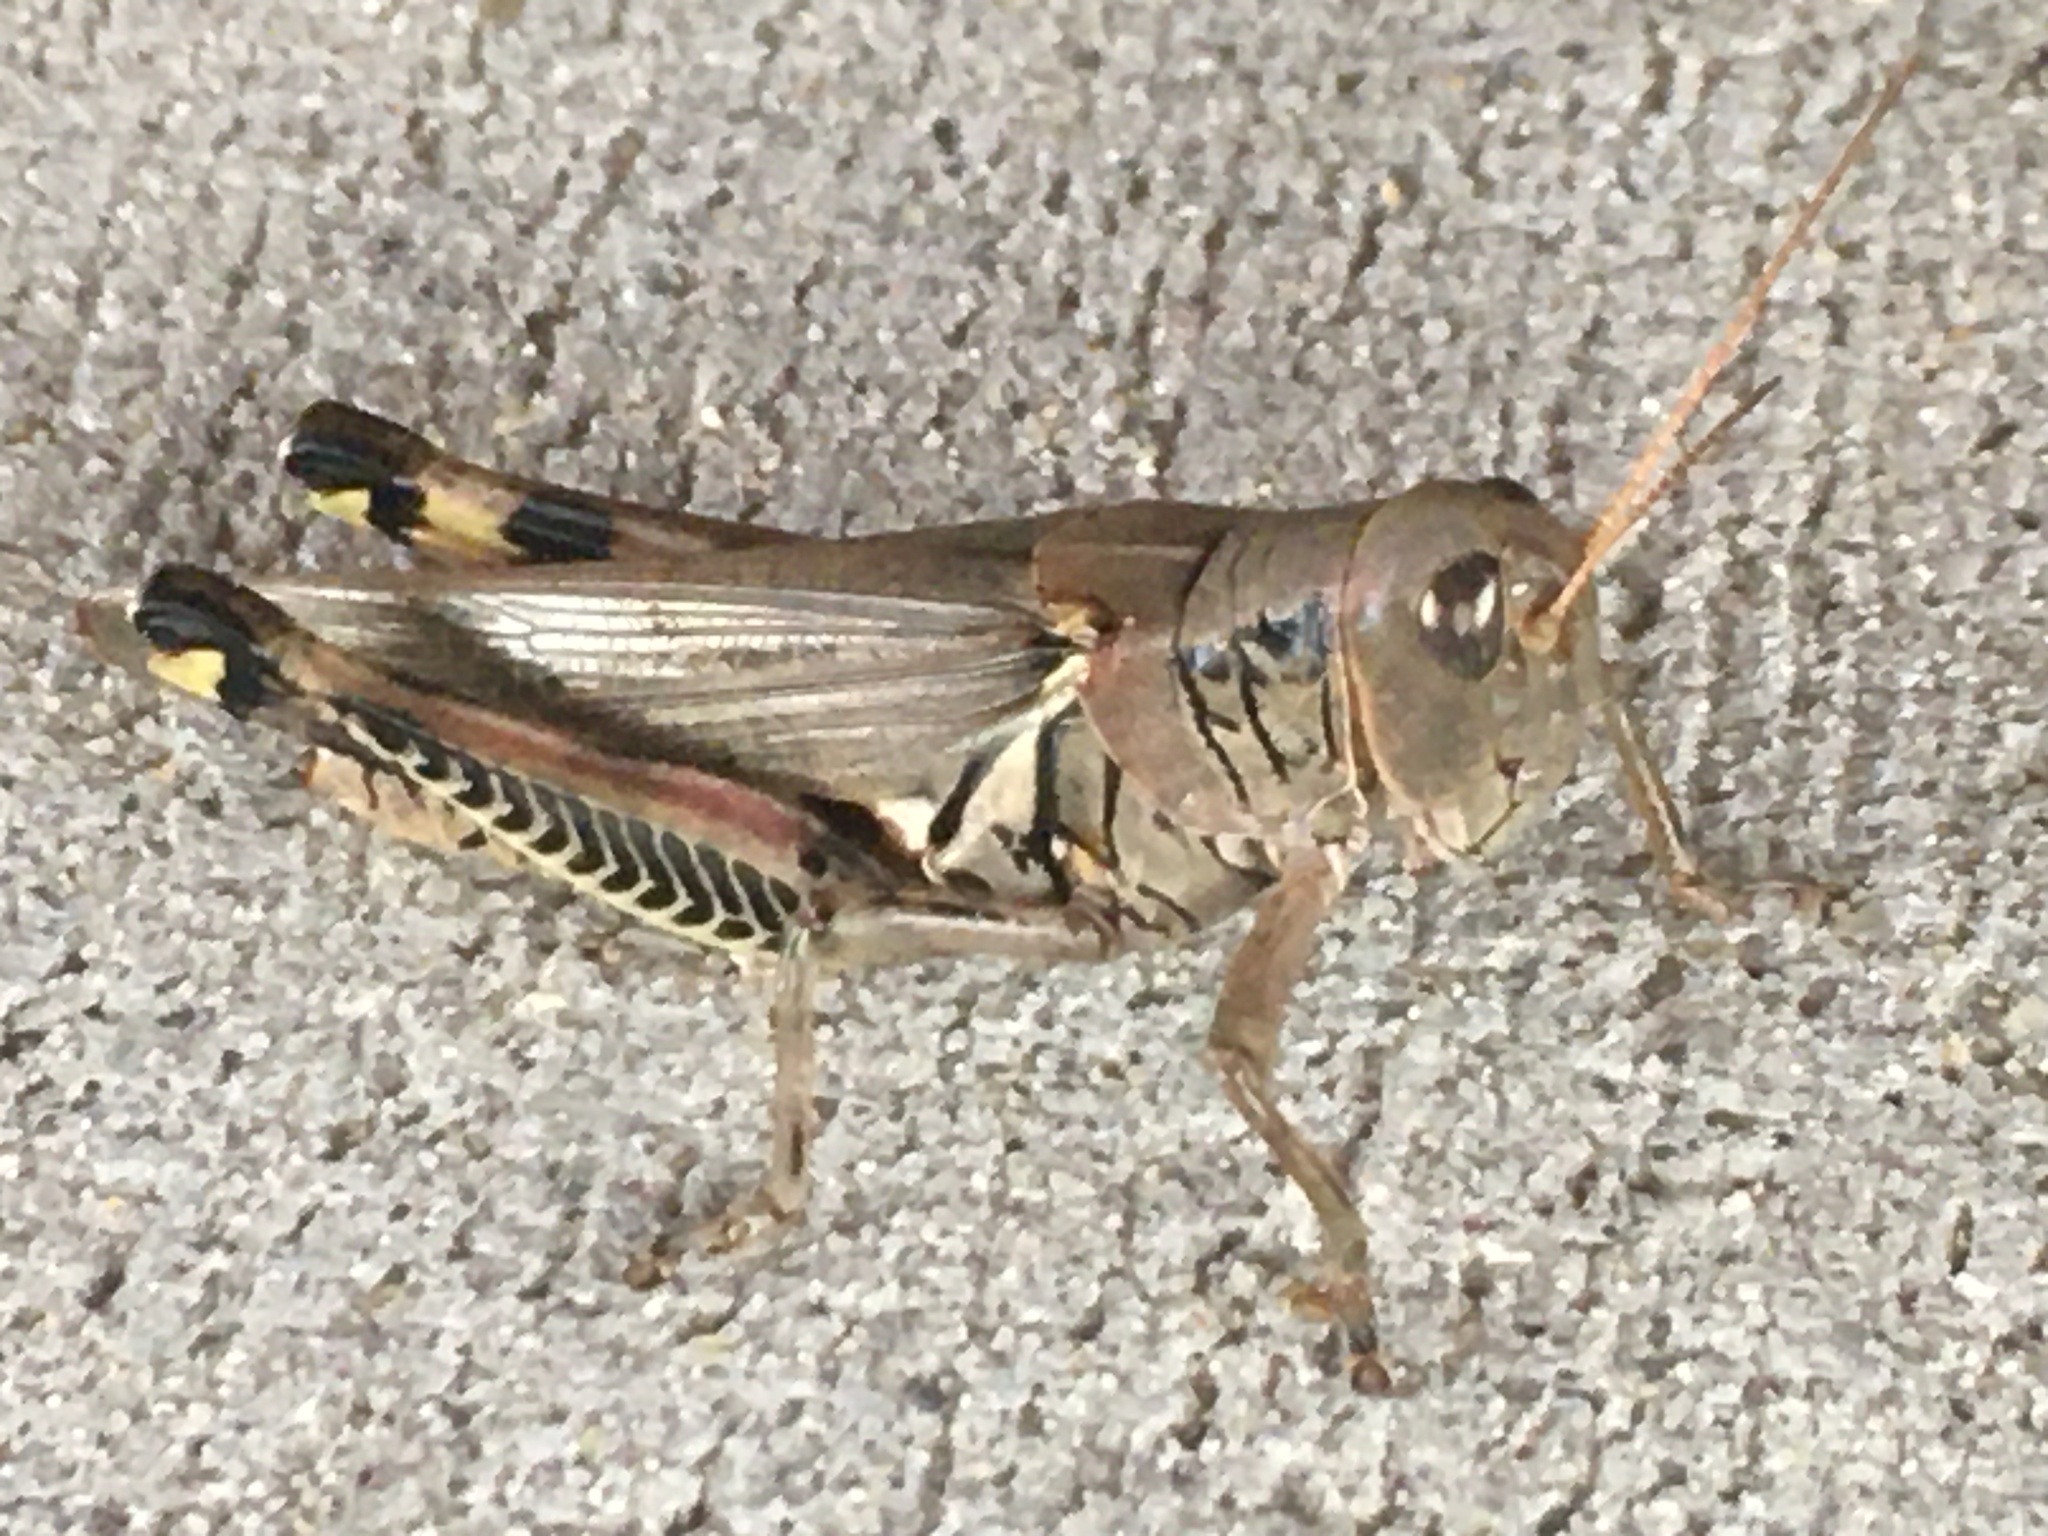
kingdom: Animalia
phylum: Arthropoda
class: Insecta
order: Orthoptera
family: Acrididae
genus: Melanoplus
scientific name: Melanoplus differentialis
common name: Differential grasshopper
